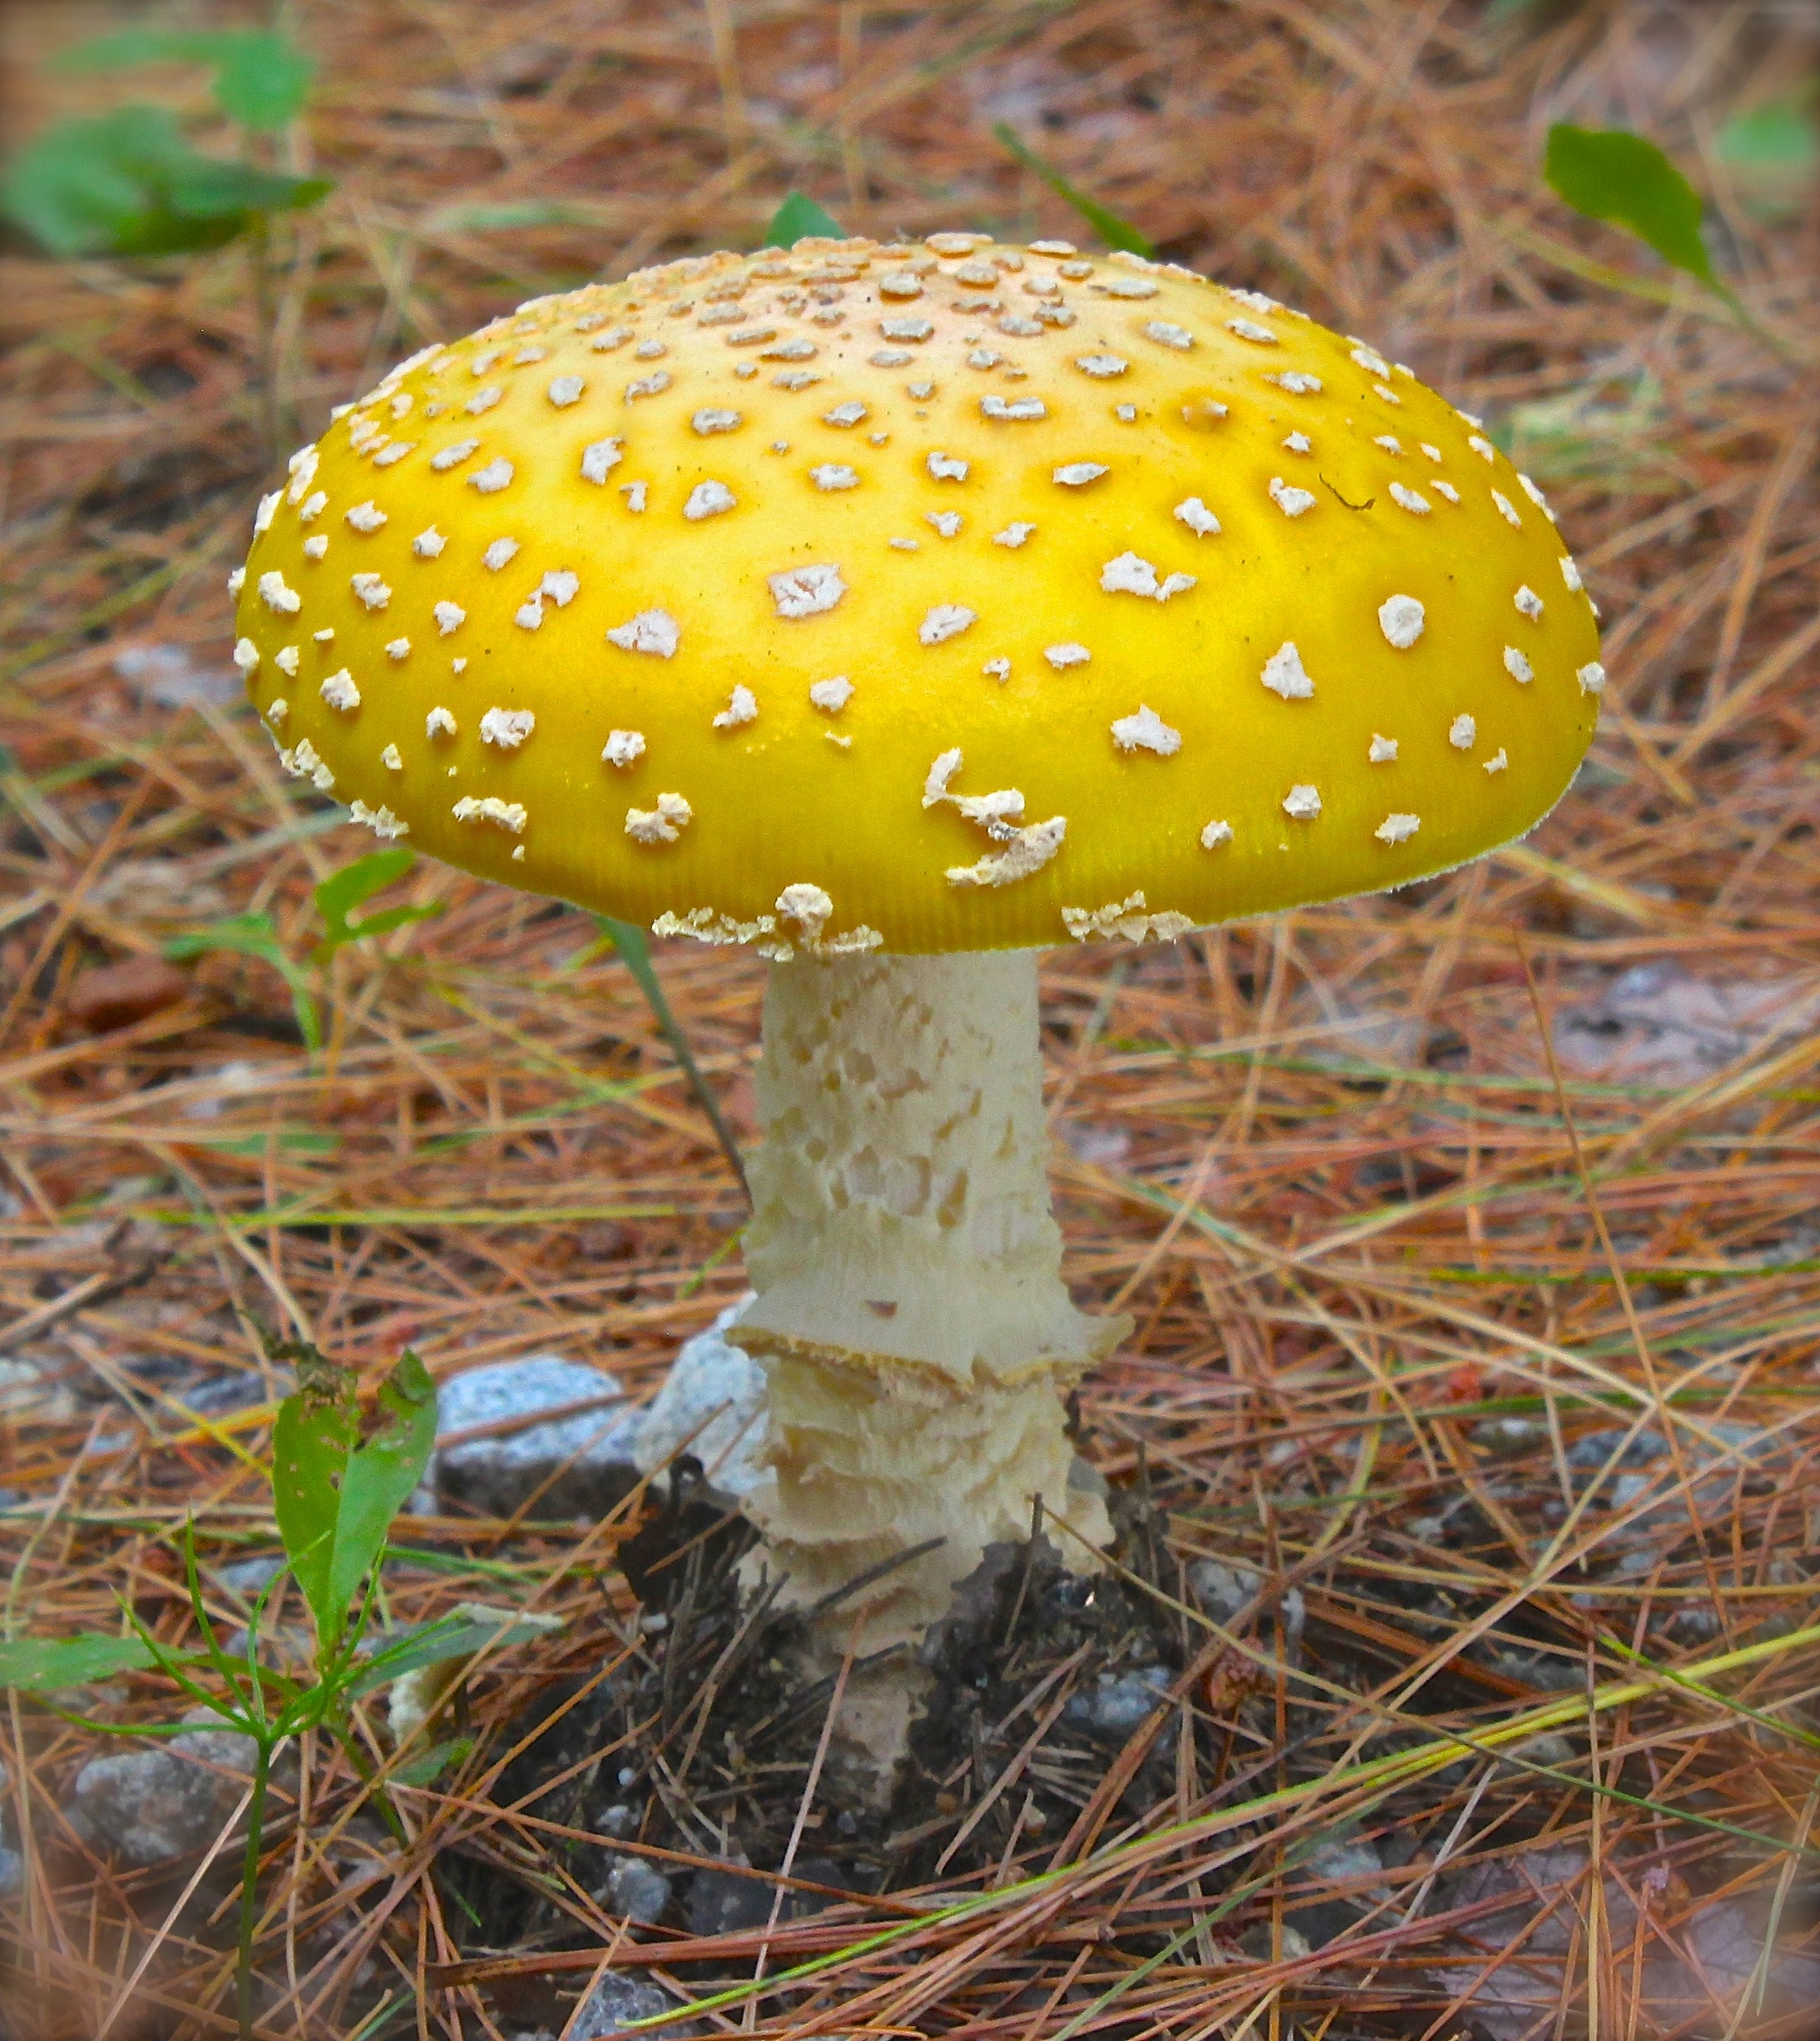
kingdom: Fungi
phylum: Basidiomycota
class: Agaricomycetes
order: Agaricales
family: Amanitaceae
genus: Amanita
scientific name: Amanita muscaria
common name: Fly agaric
